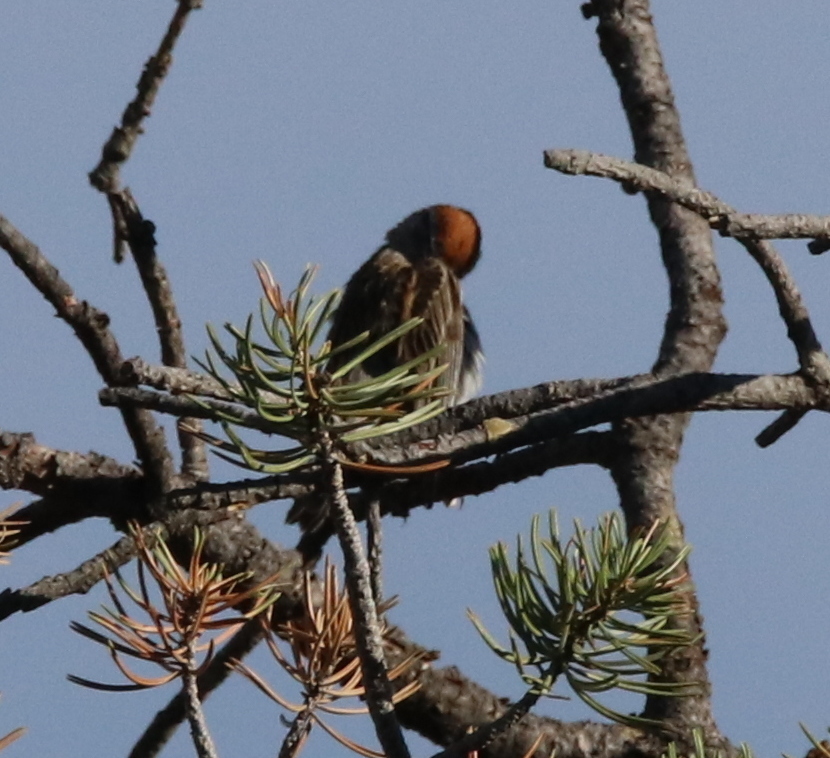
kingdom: Animalia
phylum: Chordata
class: Aves
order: Passeriformes
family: Passerellidae
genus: Spizella
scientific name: Spizella passerina
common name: Chipping sparrow
